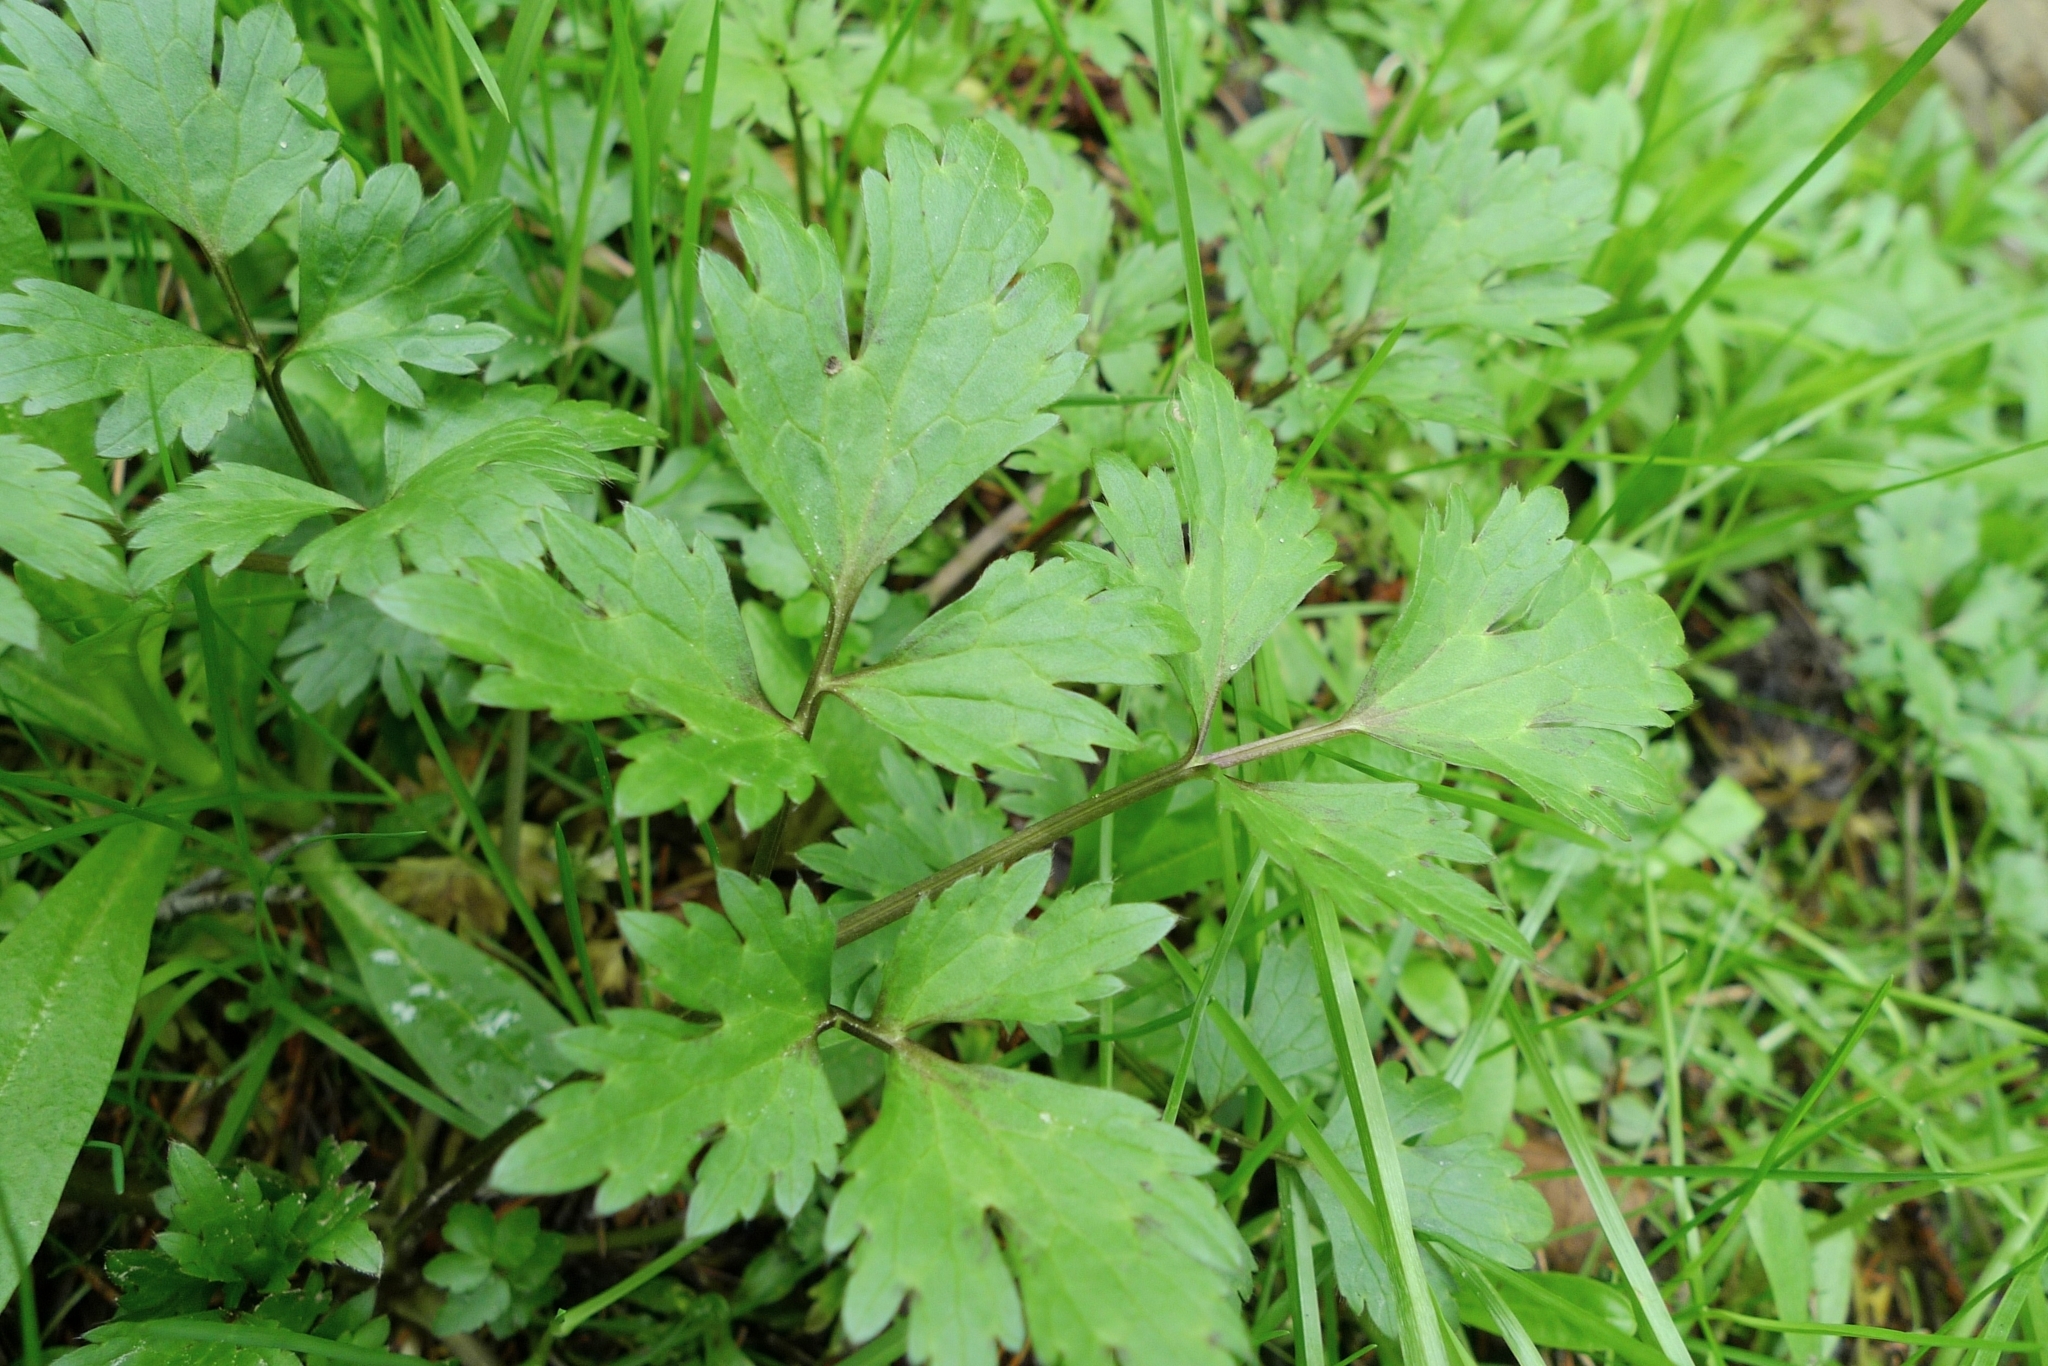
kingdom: Plantae
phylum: Tracheophyta
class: Magnoliopsida
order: Ranunculales
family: Ranunculaceae
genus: Ranunculus
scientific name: Ranunculus repens
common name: Creeping buttercup
